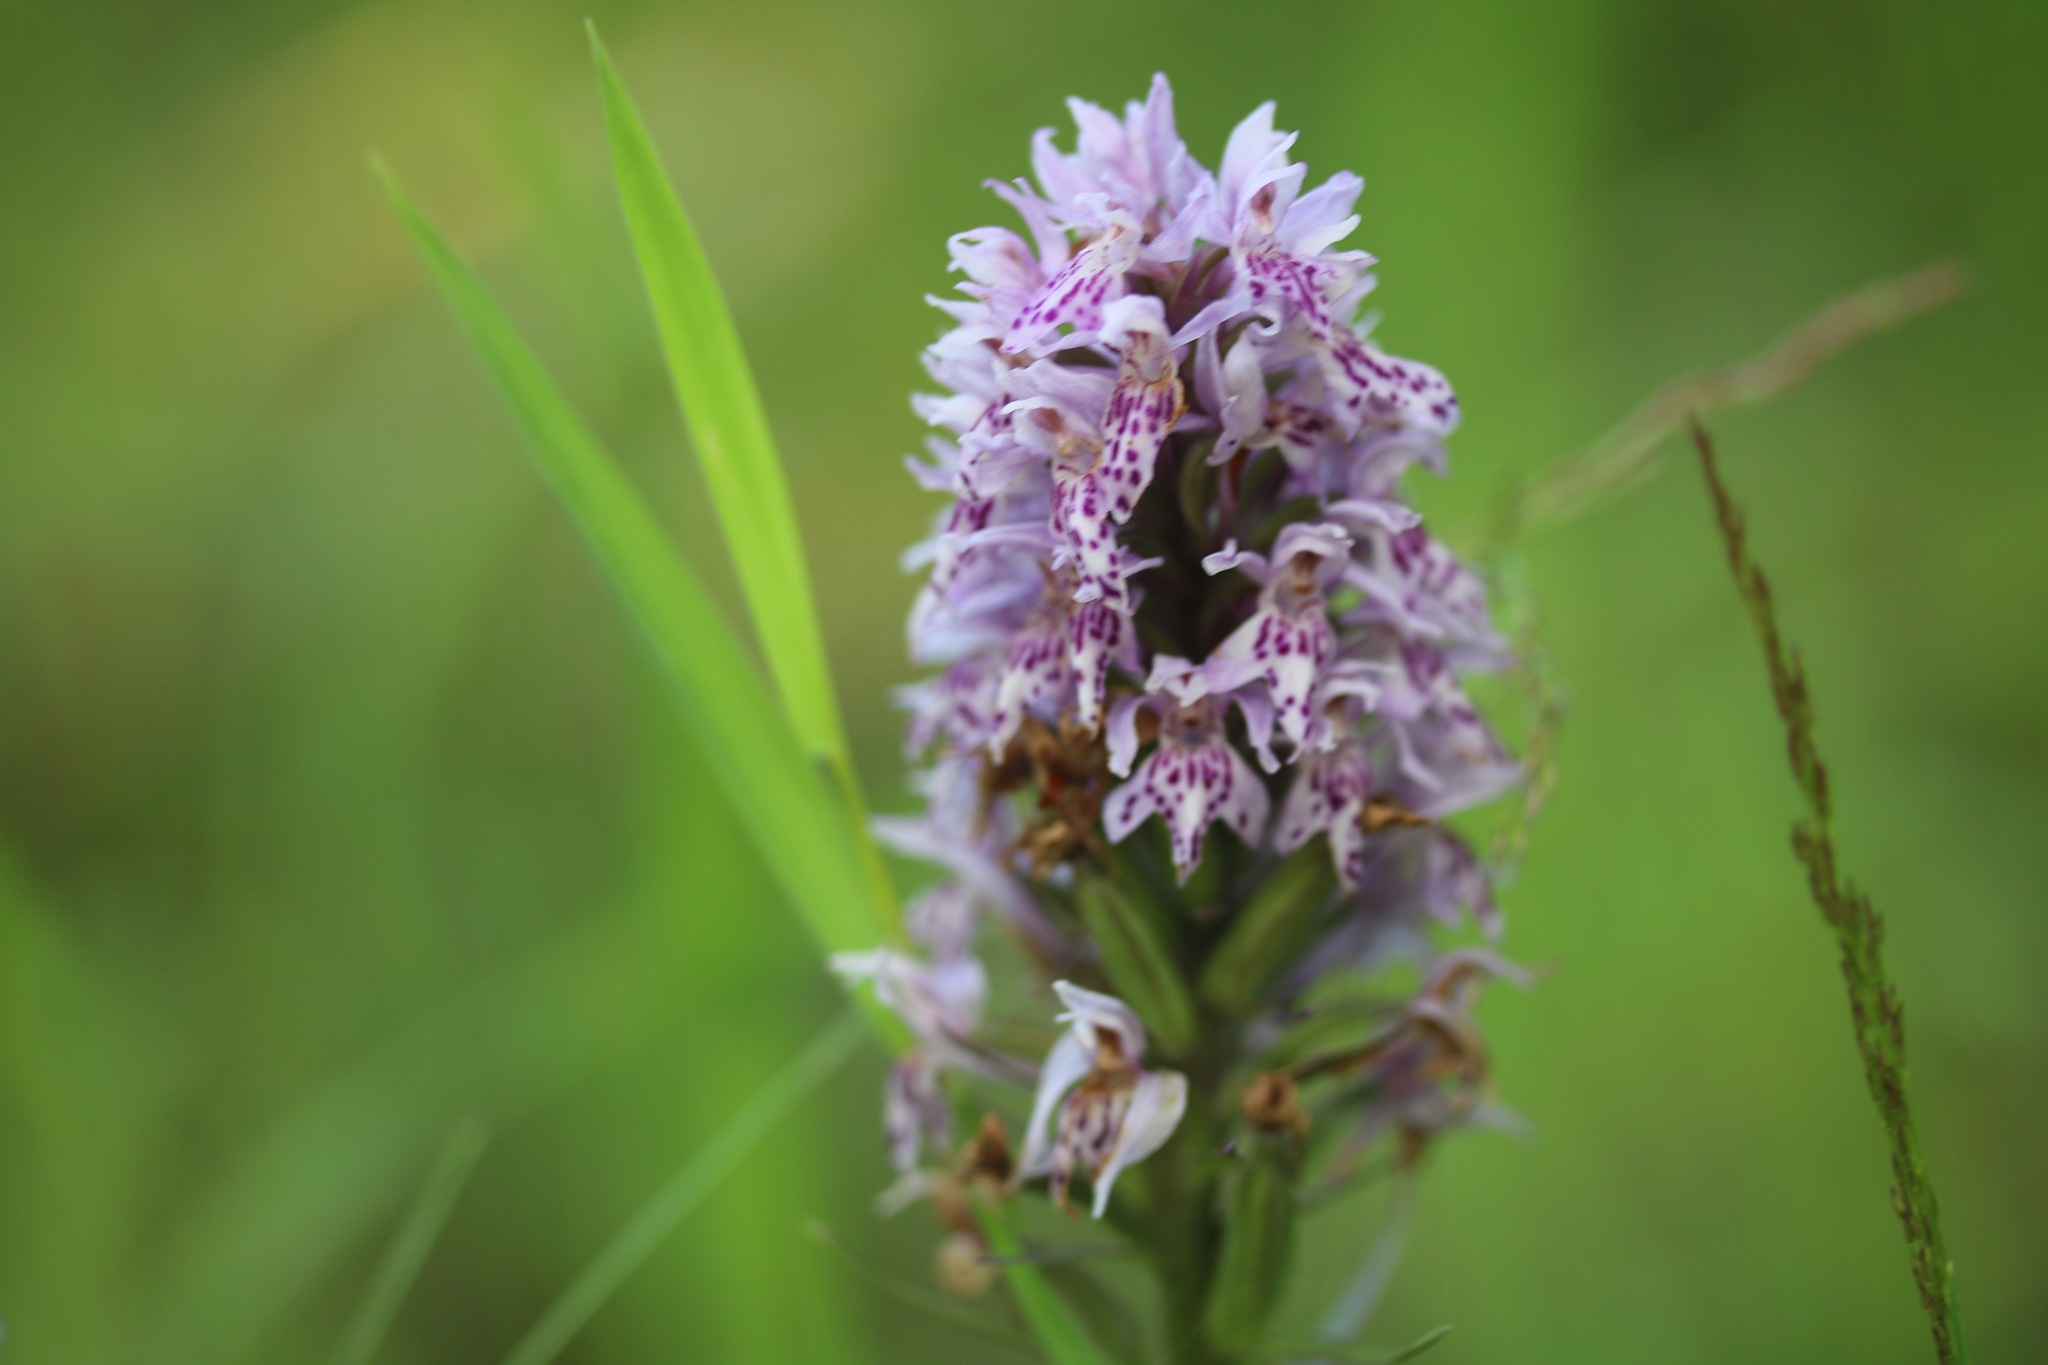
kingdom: Plantae
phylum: Tracheophyta
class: Liliopsida
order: Asparagales
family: Orchidaceae
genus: Dactylorhiza
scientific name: Dactylorhiza maculata
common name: Heath spotted-orchid
